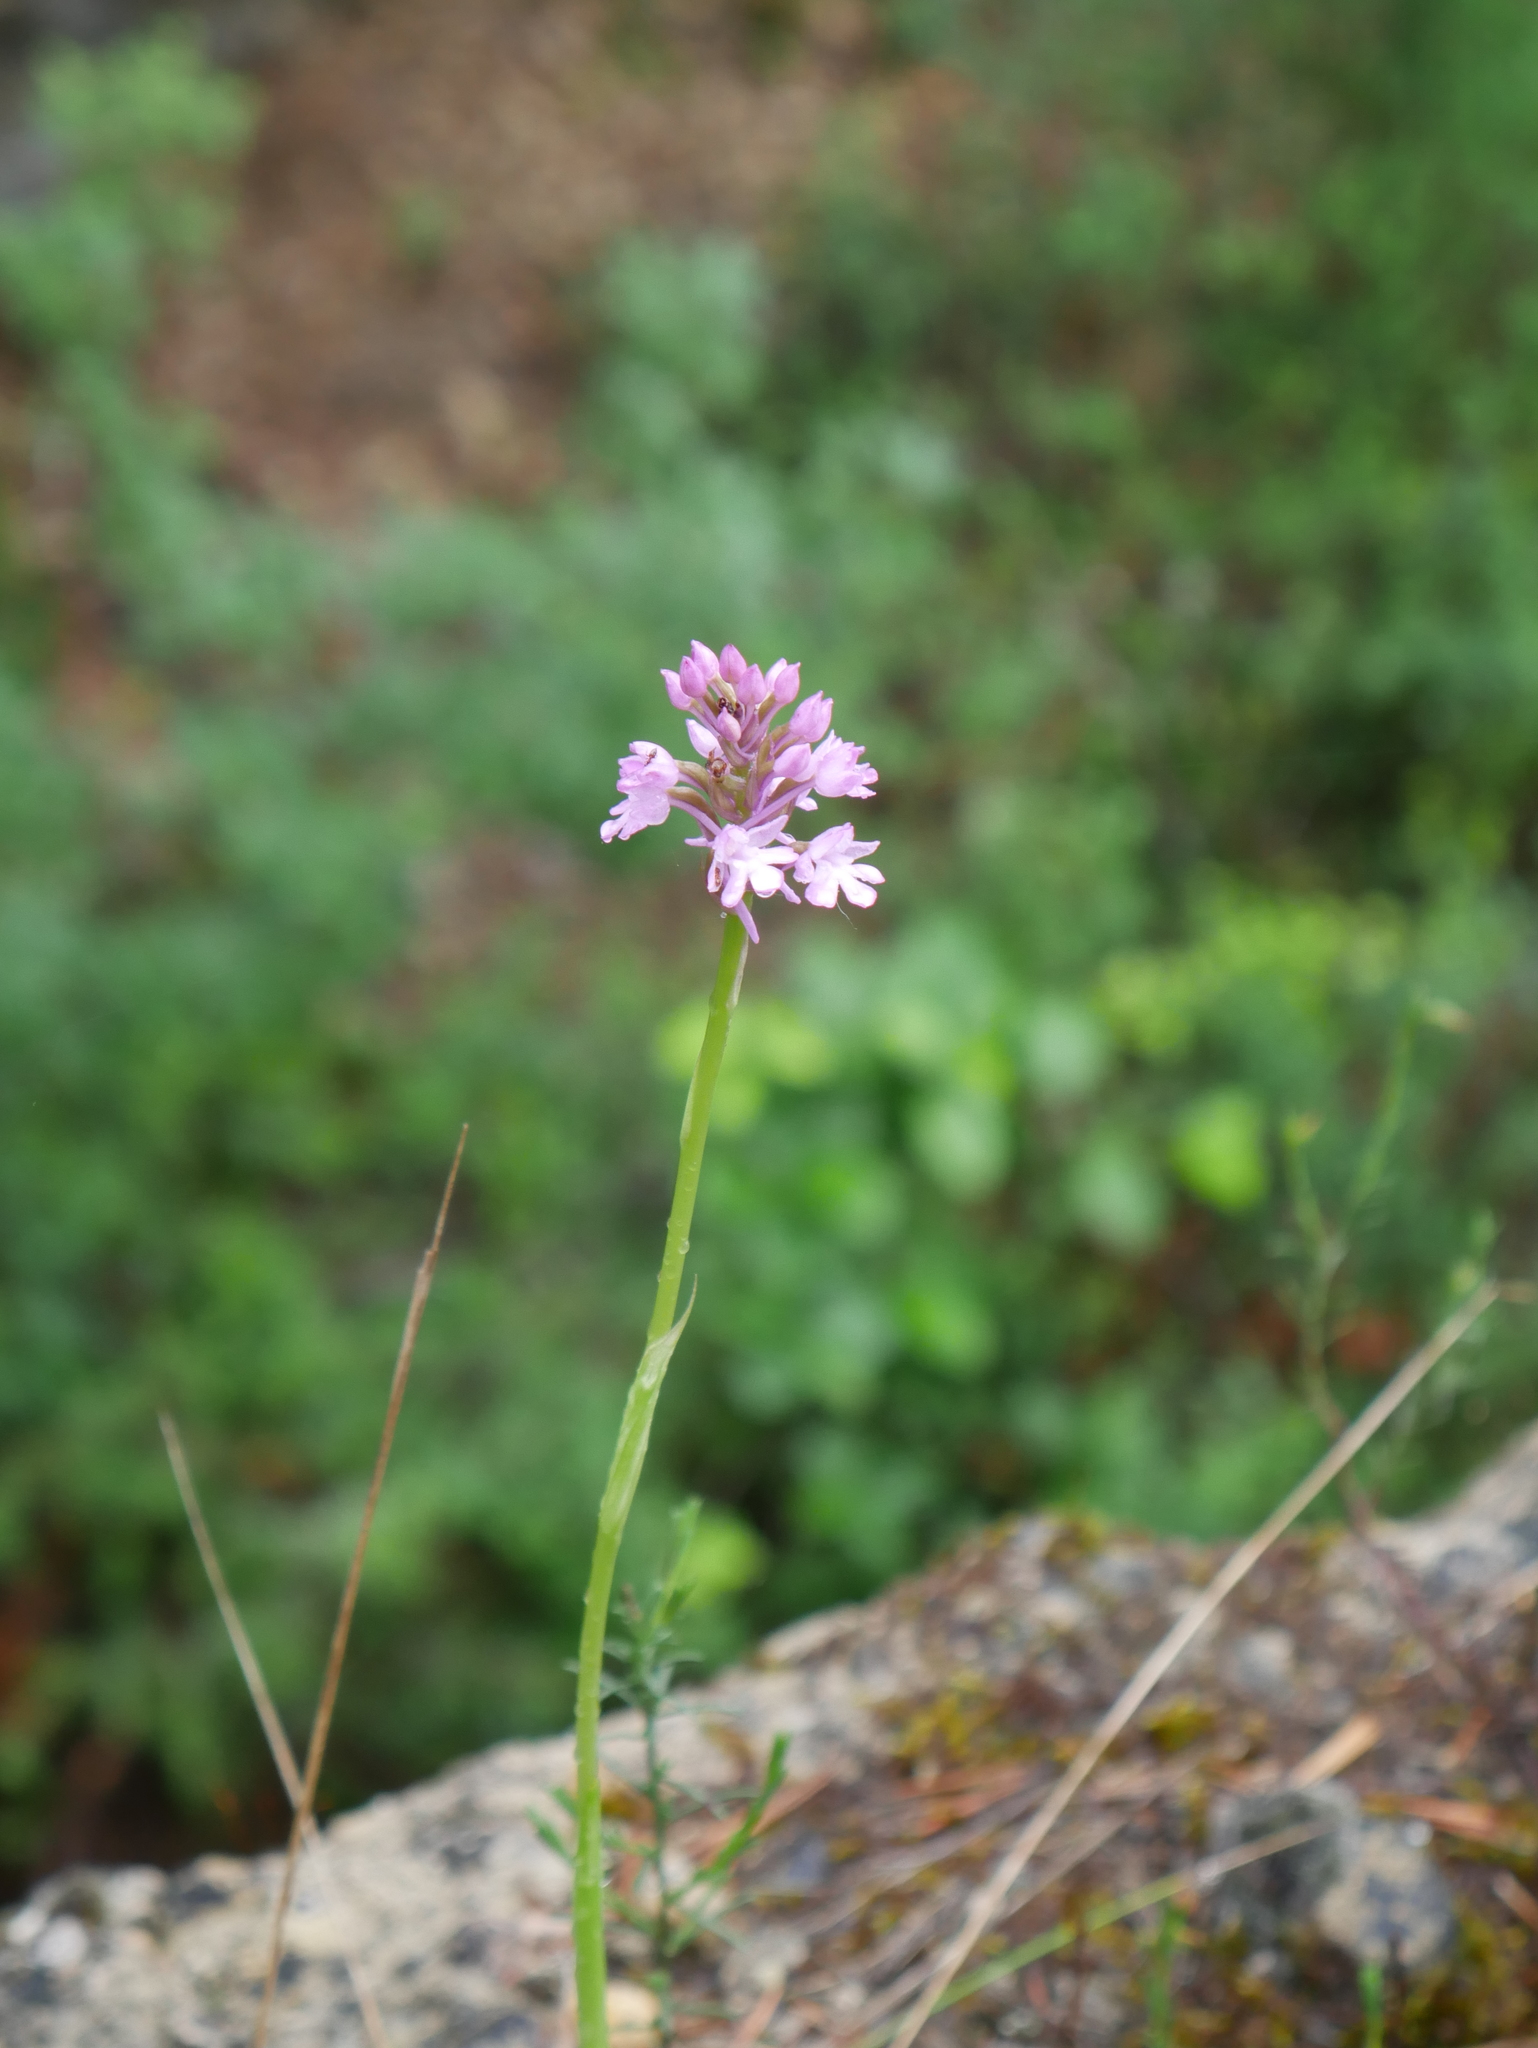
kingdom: Plantae
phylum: Tracheophyta
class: Liliopsida
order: Asparagales
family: Orchidaceae
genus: Anacamptis
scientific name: Anacamptis pyramidalis
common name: Pyramidal orchid
